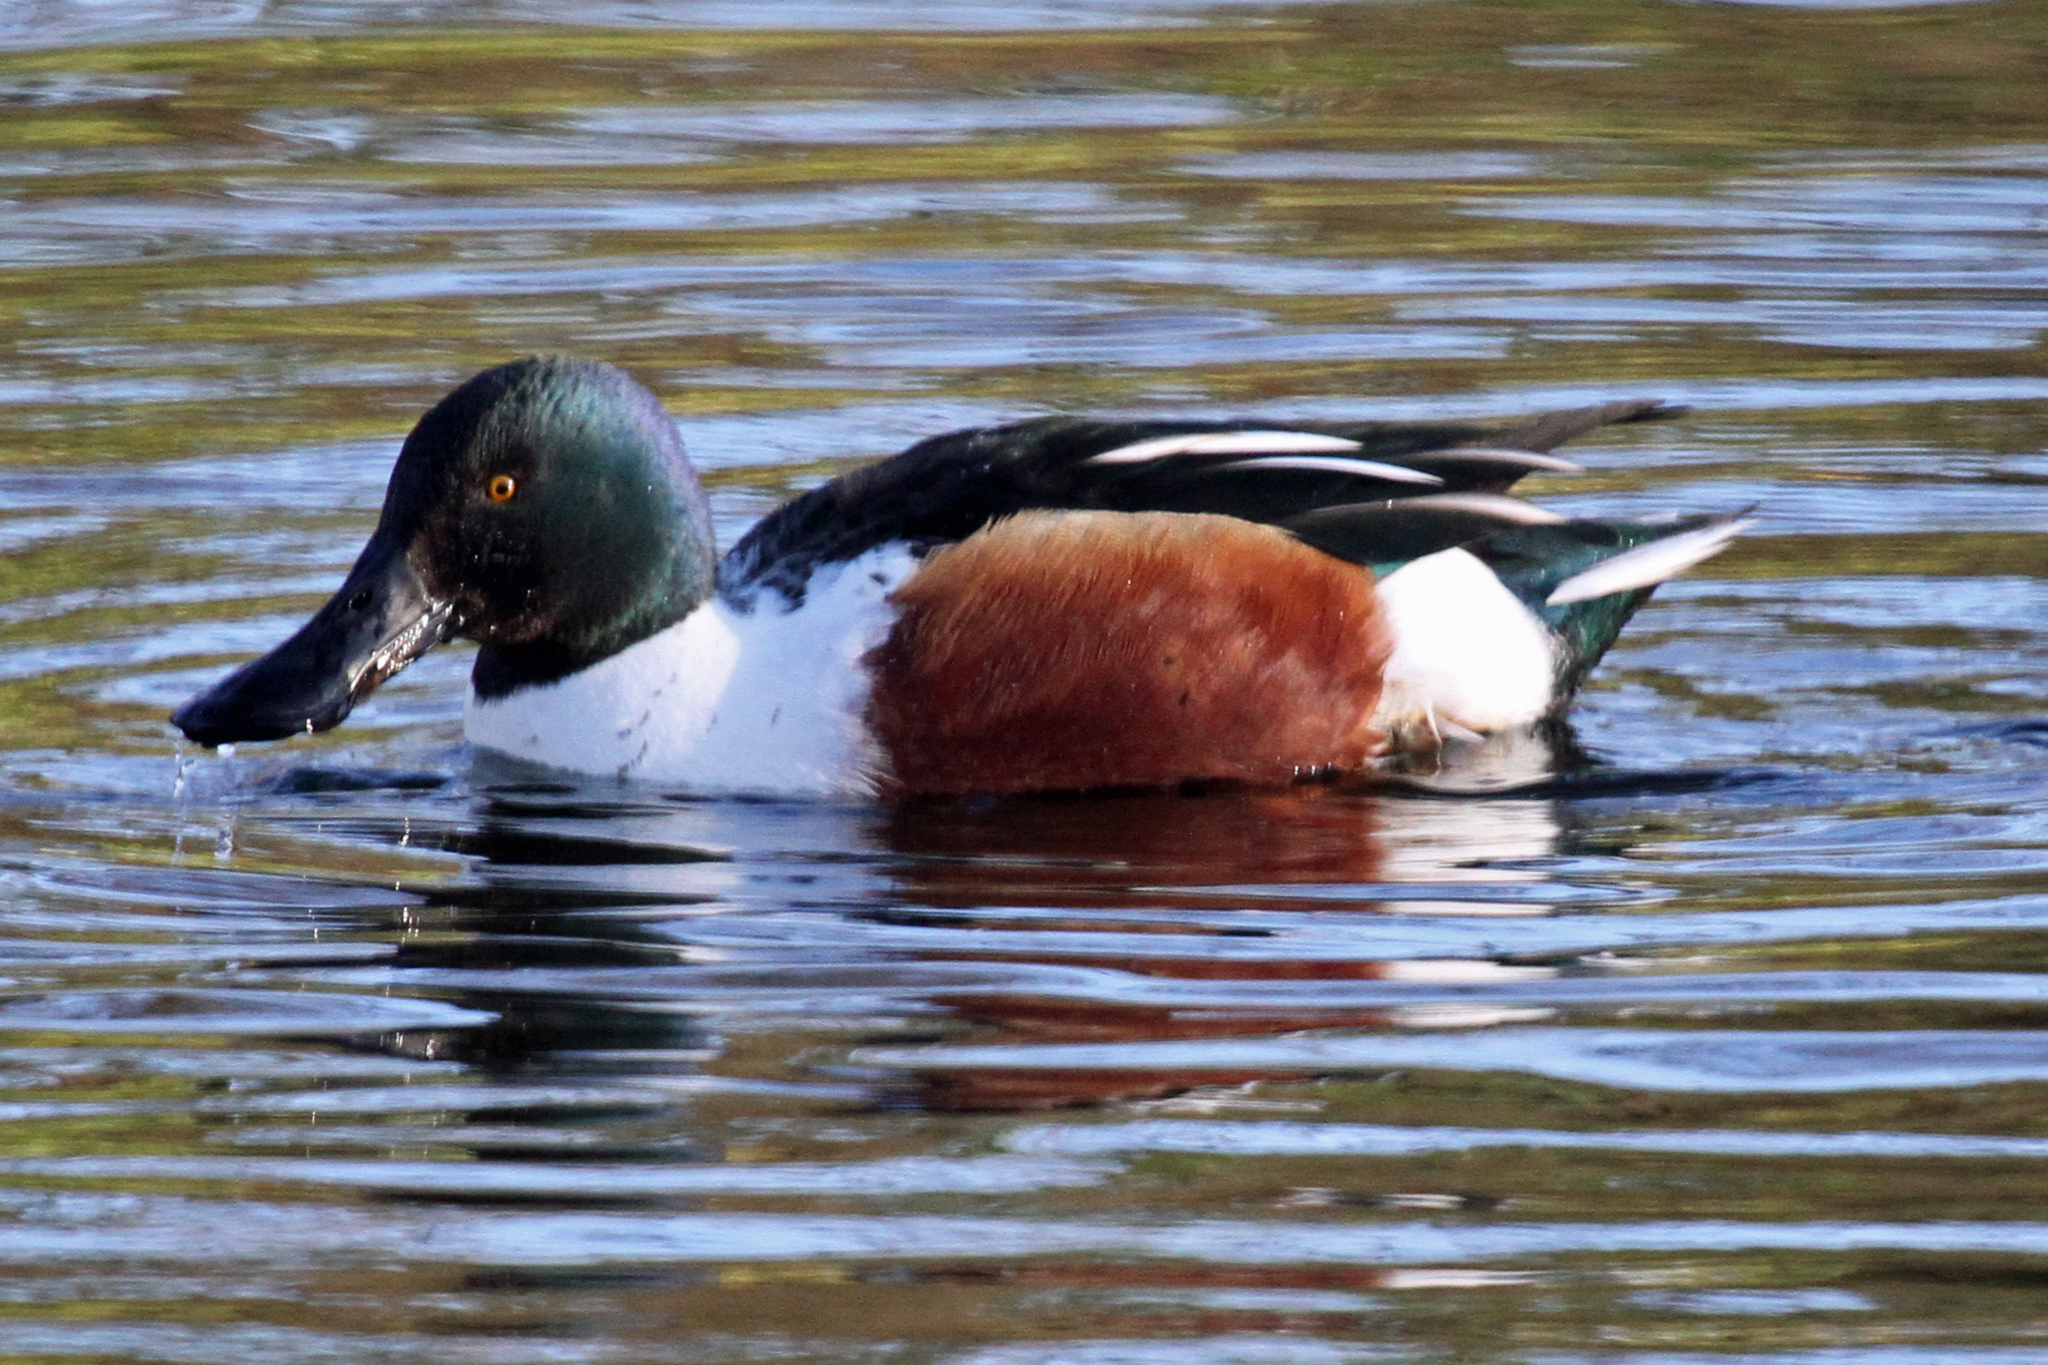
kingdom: Animalia
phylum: Chordata
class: Aves
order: Anseriformes
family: Anatidae
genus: Spatula
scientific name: Spatula clypeata
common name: Northern shoveler
